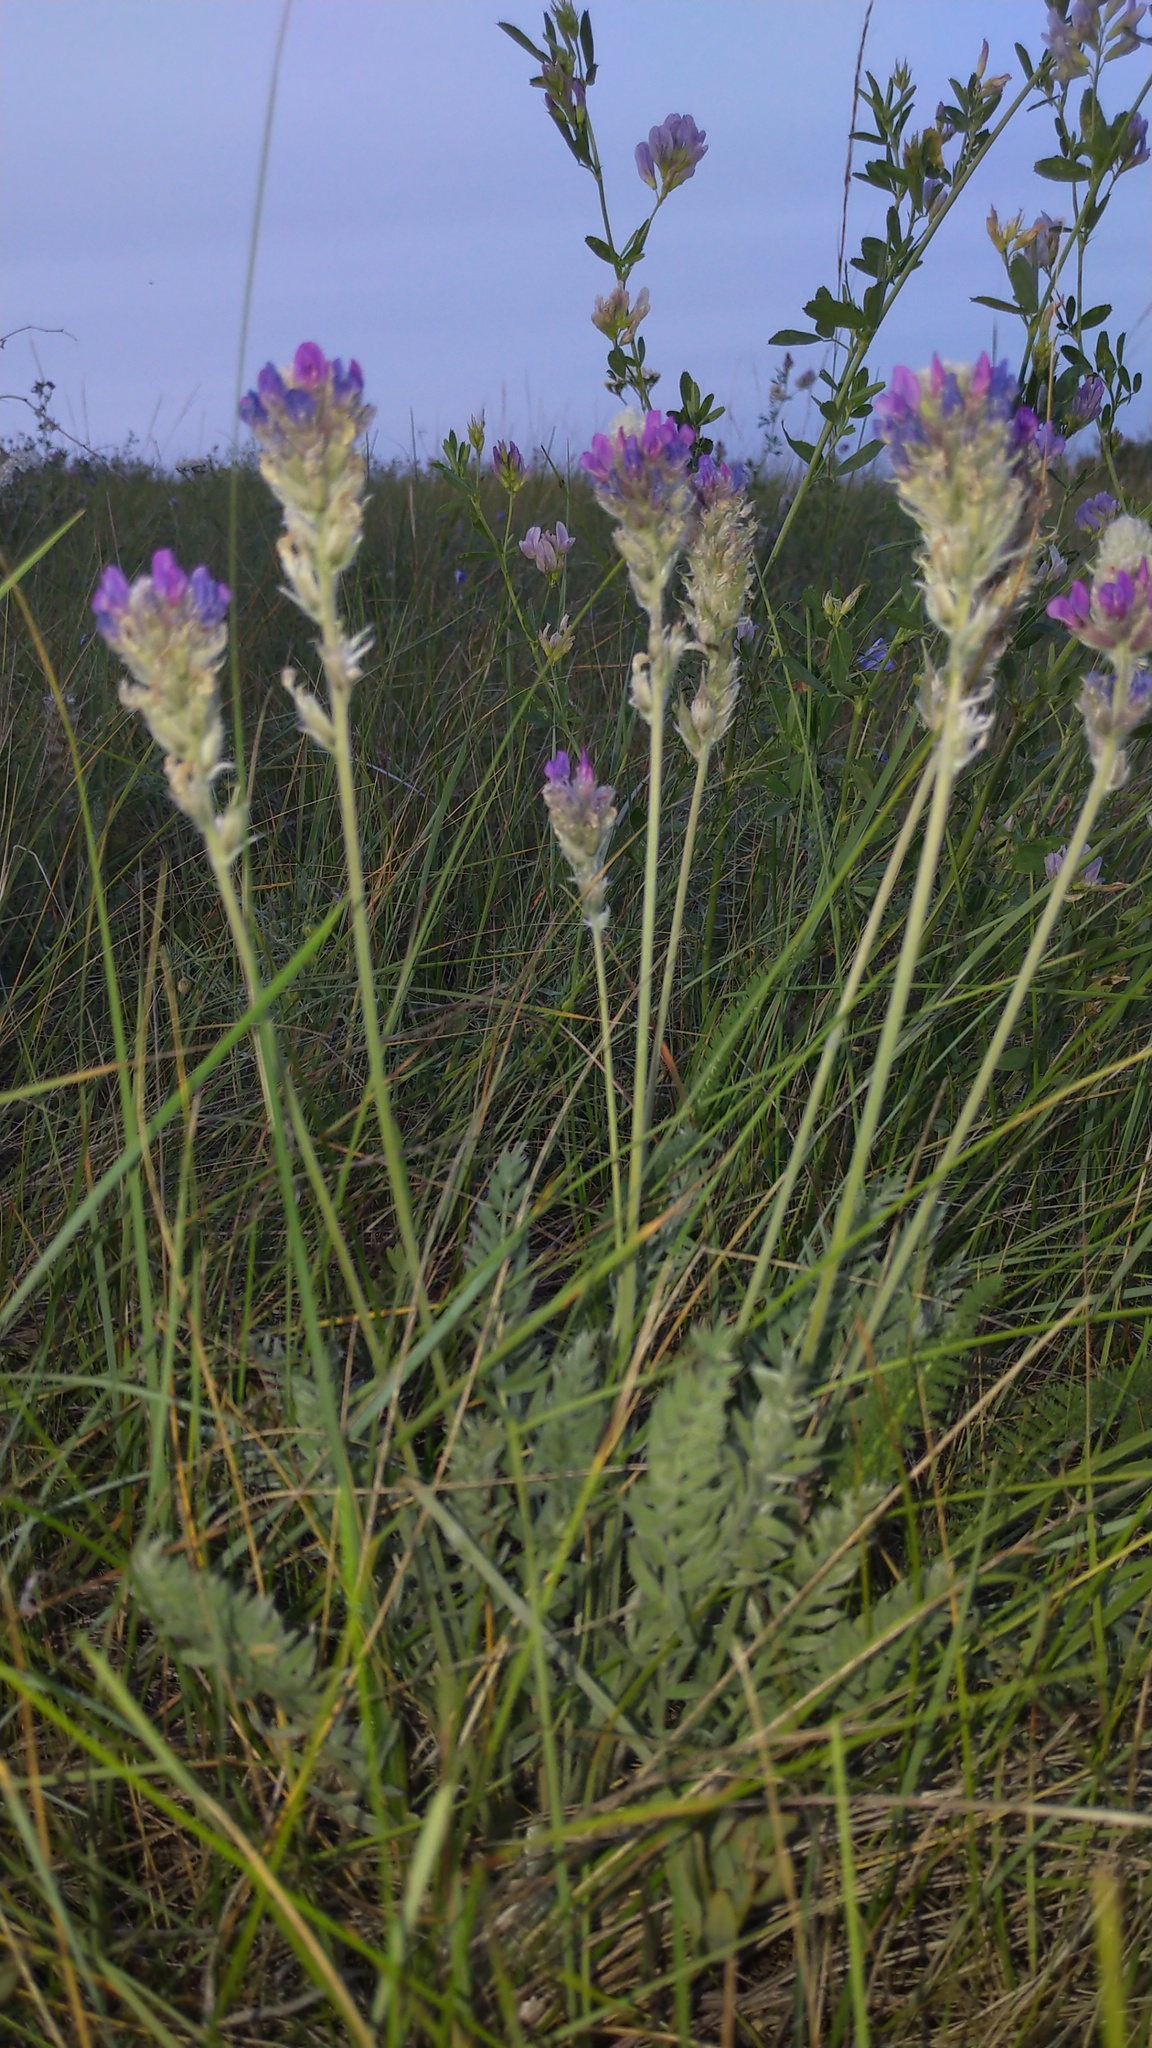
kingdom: Plantae
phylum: Tracheophyta
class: Magnoliopsida
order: Fabales
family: Fabaceae
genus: Oxytropis
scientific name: Oxytropis splendens
